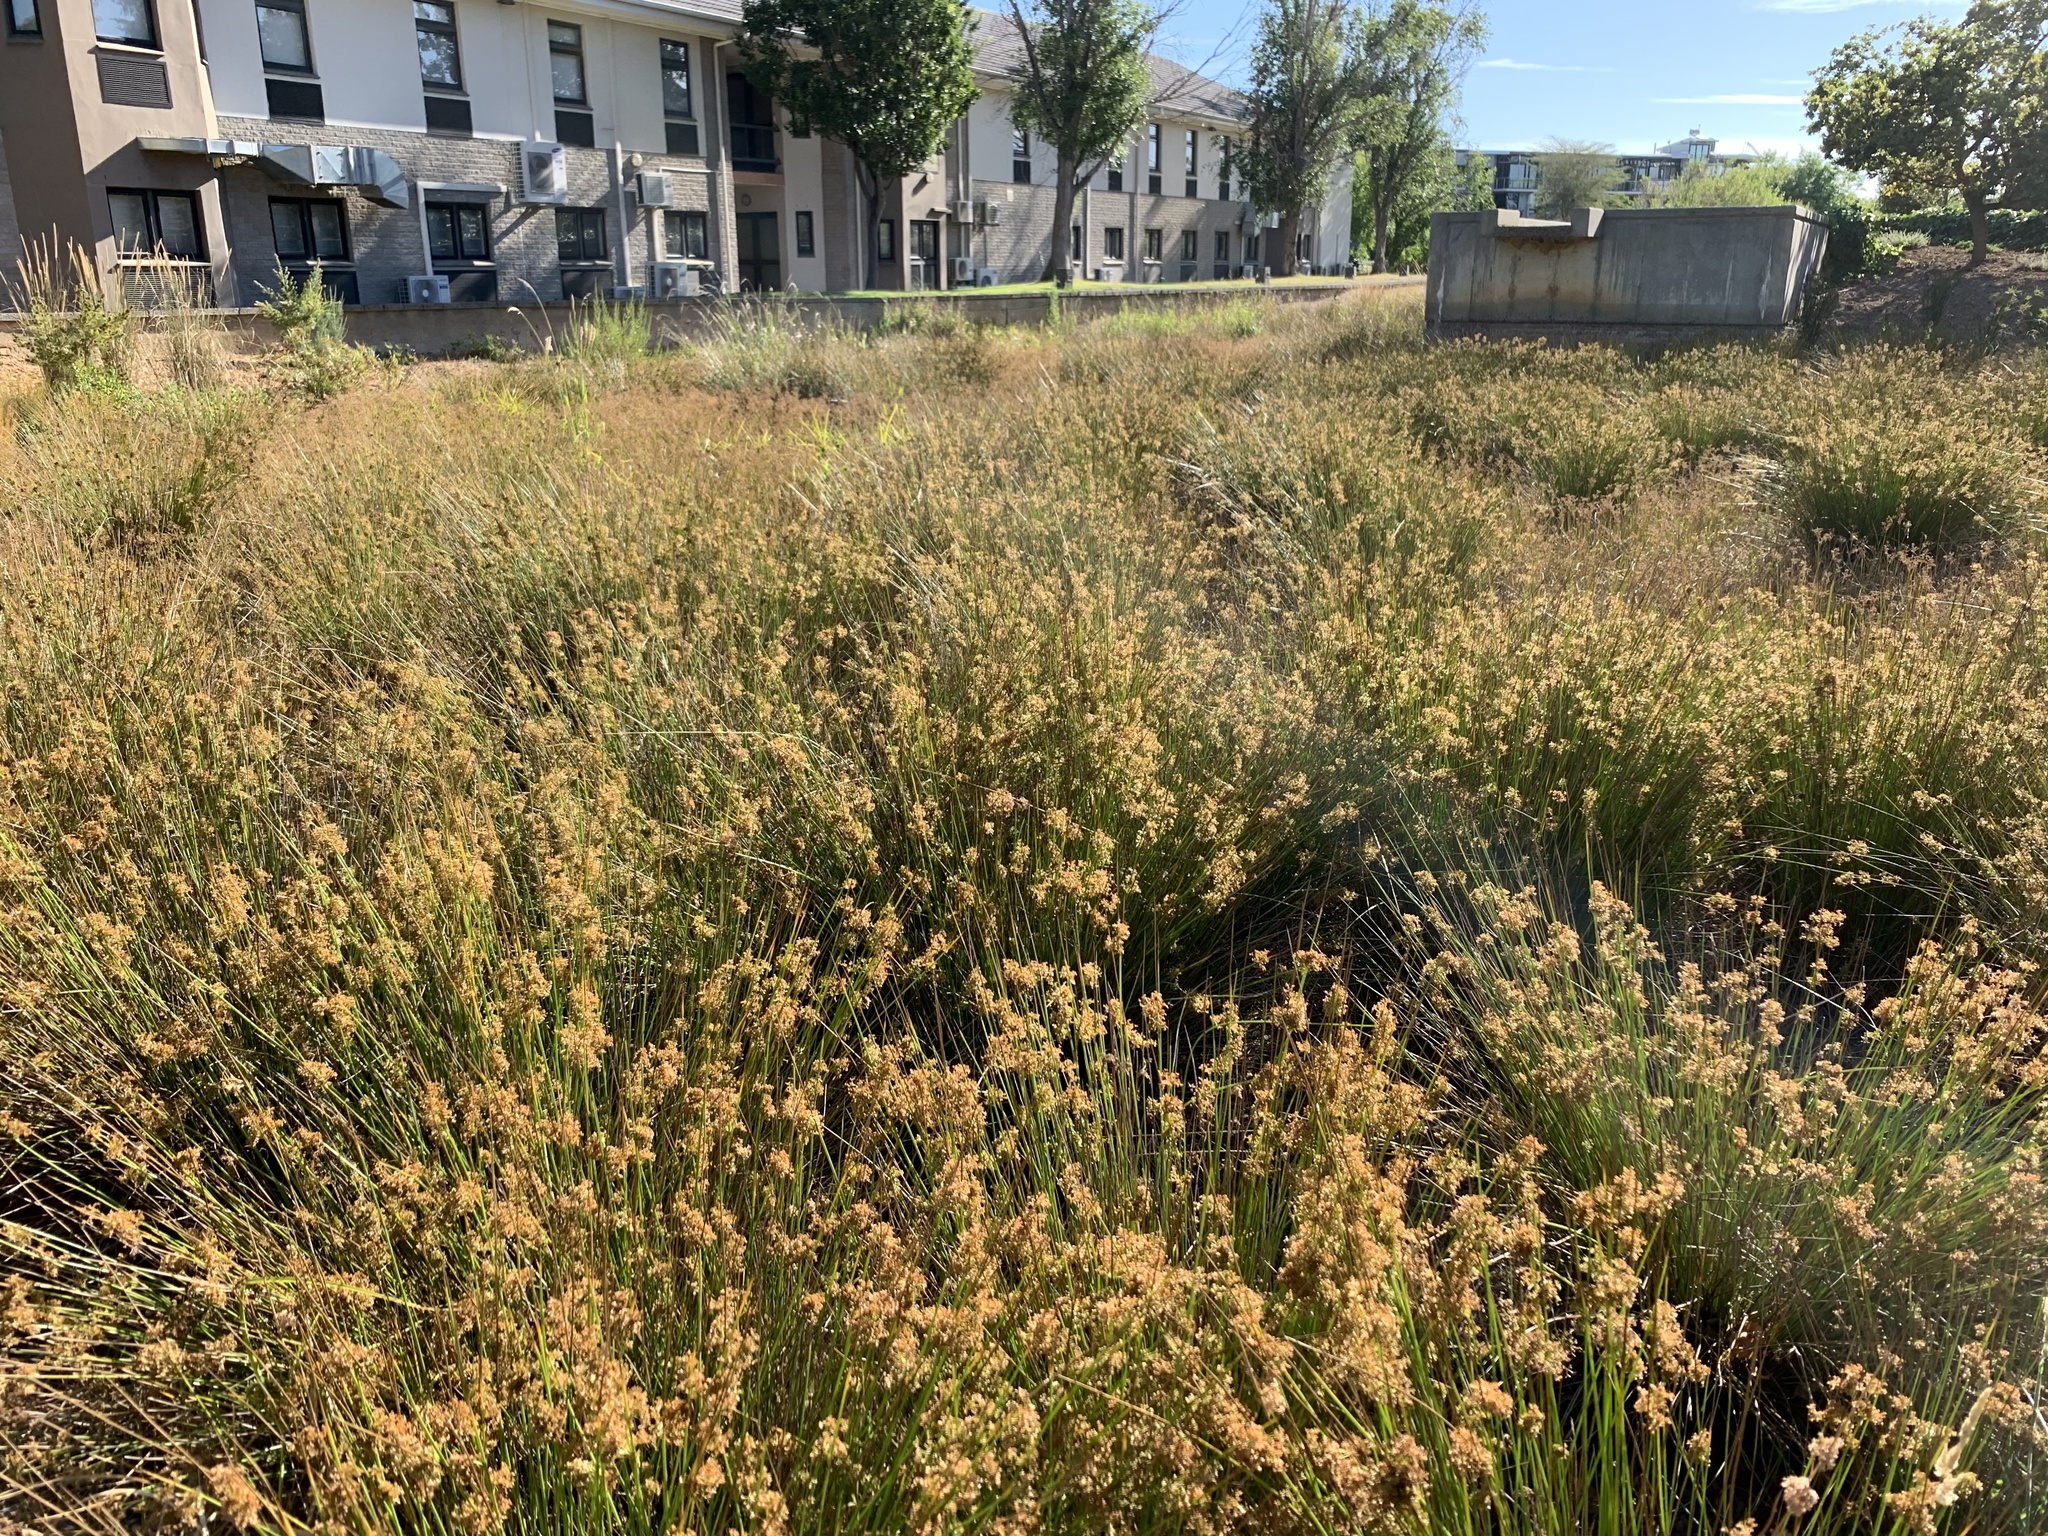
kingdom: Plantae
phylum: Tracheophyta
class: Liliopsida
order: Poales
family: Juncaceae
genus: Juncus
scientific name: Juncus effusus
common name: Soft rush
